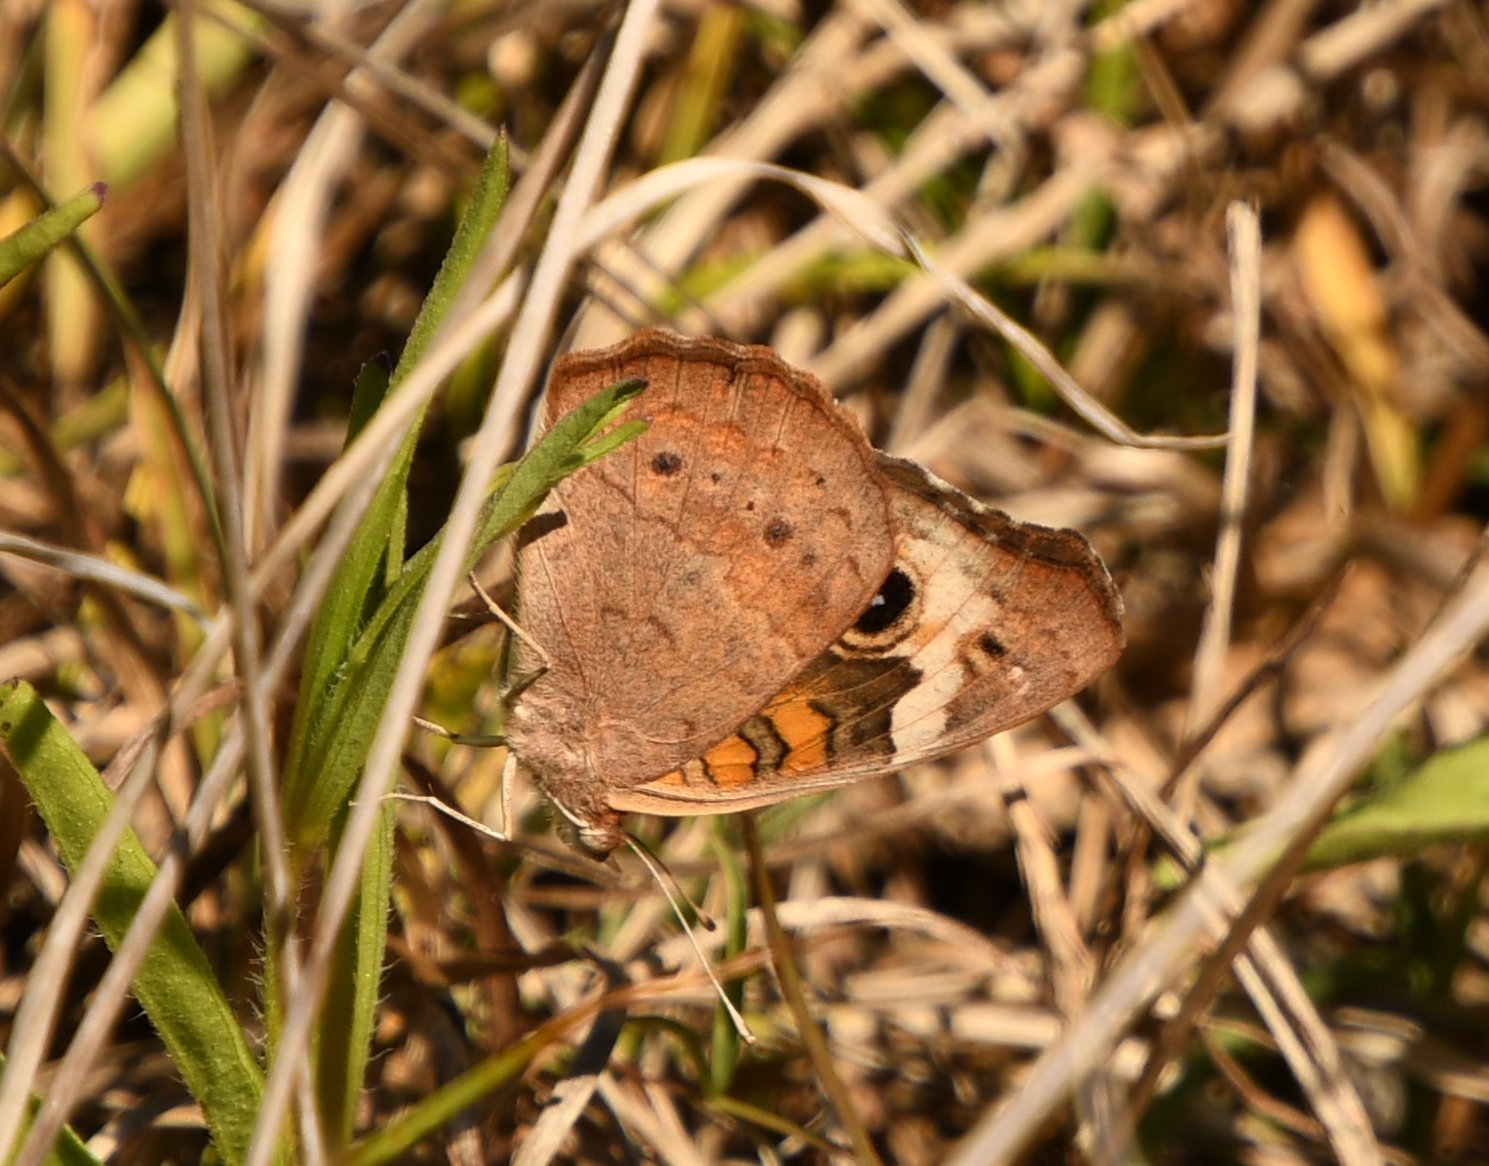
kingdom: Animalia
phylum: Arthropoda
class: Insecta
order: Lepidoptera
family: Nymphalidae
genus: Junonia
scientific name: Junonia coenia
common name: Common buckeye
